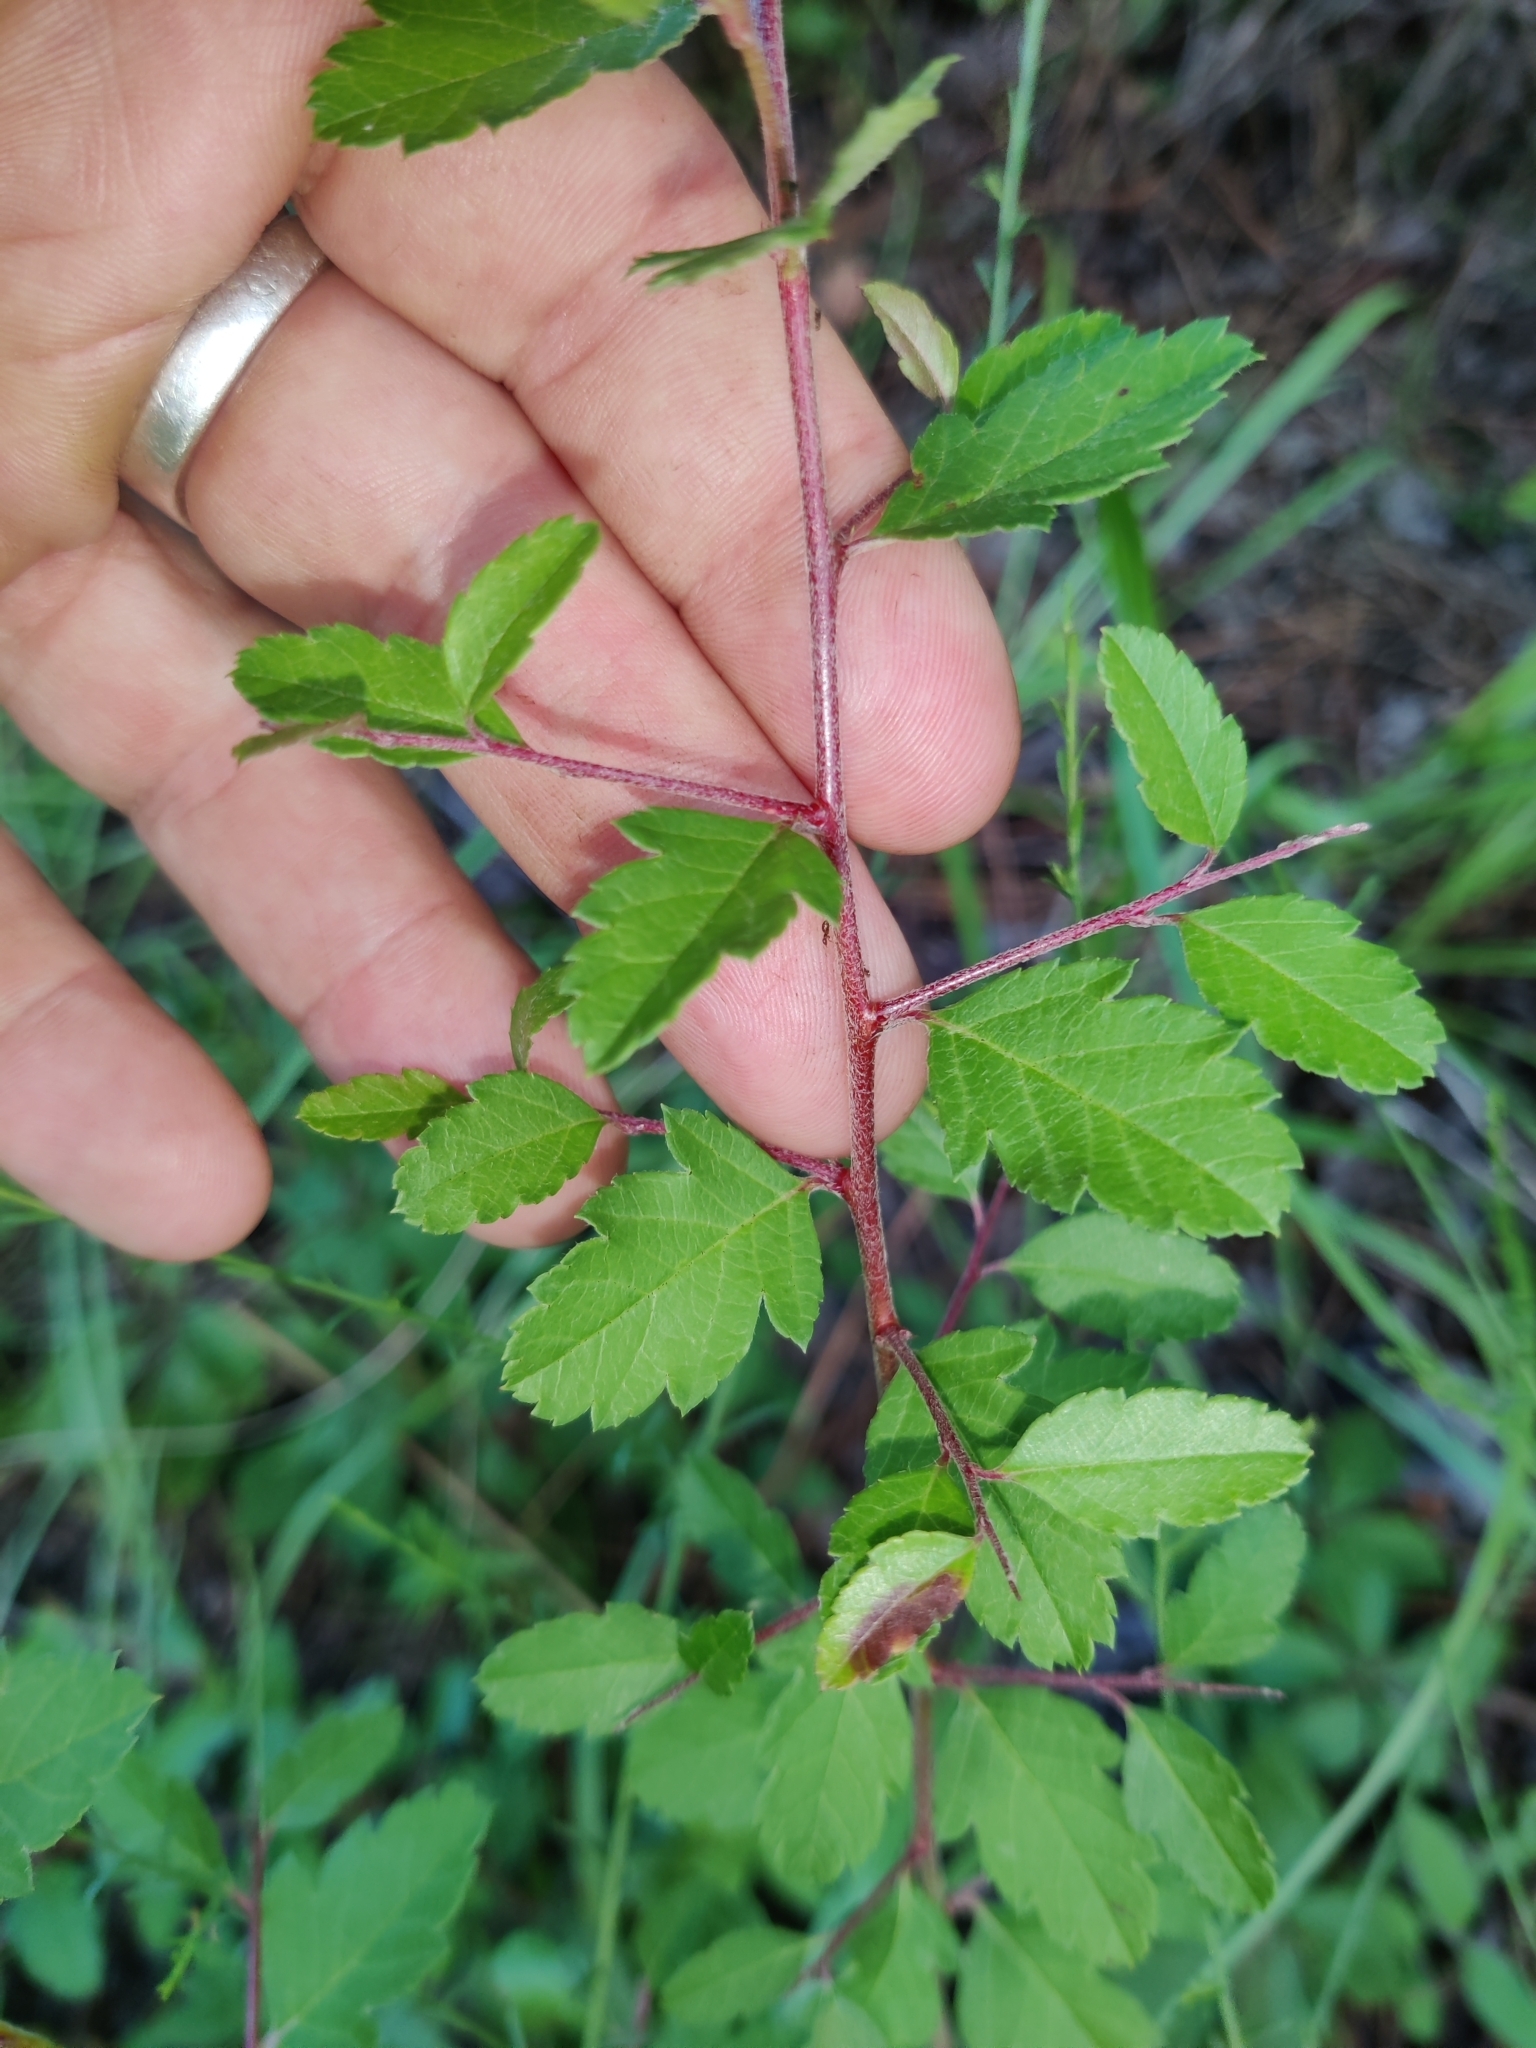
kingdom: Plantae
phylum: Tracheophyta
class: Magnoliopsida
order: Rosales
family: Rosaceae
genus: Malus
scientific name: Malus angustifolia
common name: Southern crab apple
